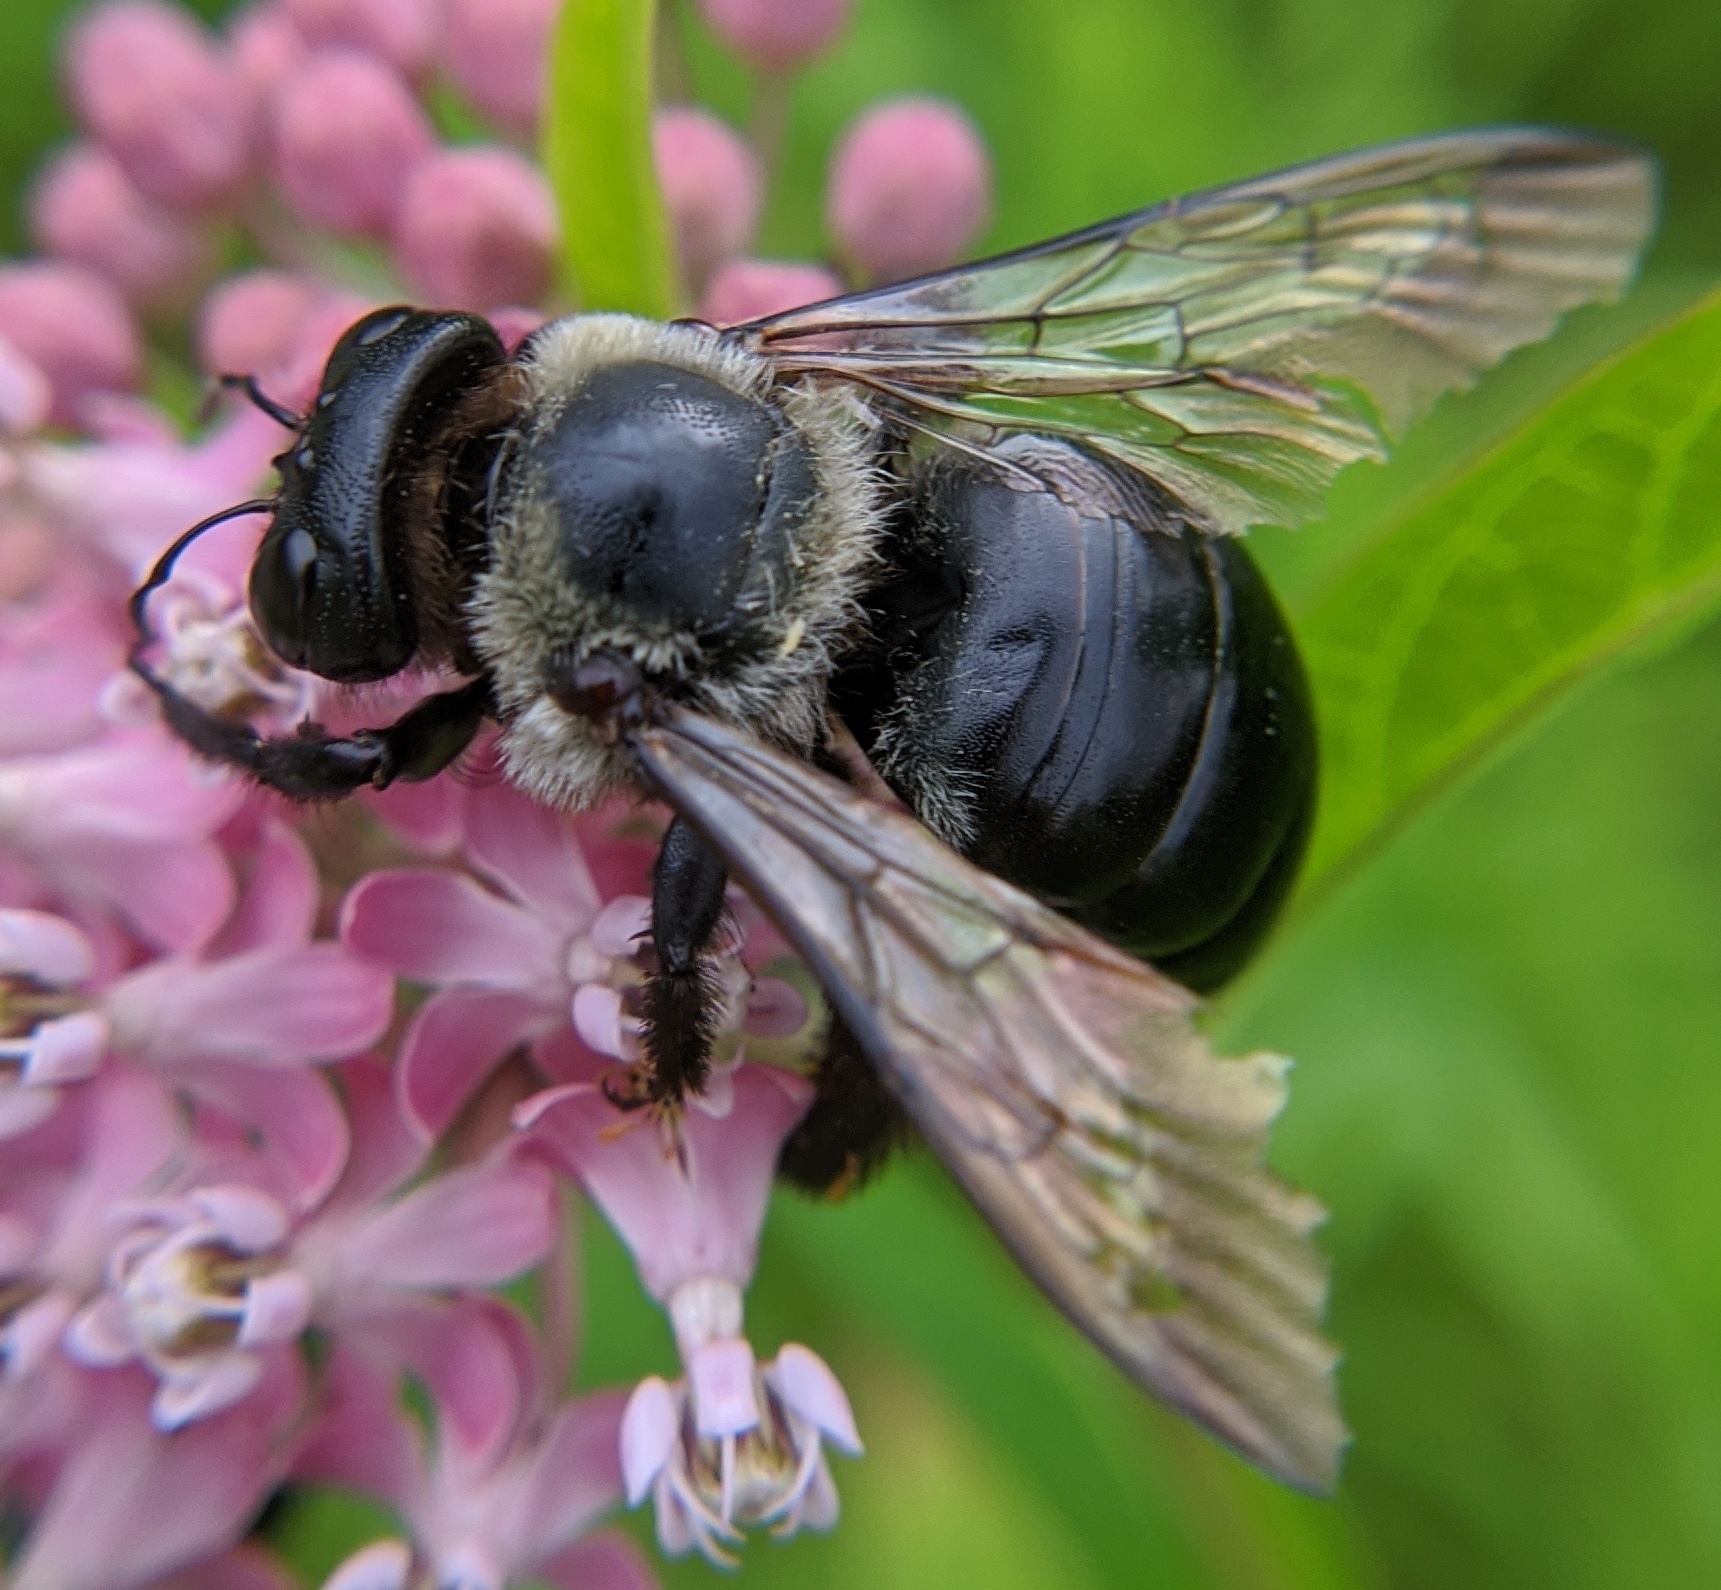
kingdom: Animalia
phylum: Arthropoda
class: Insecta
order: Hymenoptera
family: Apidae
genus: Xylocopa
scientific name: Xylocopa virginica
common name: Carpenter bee
